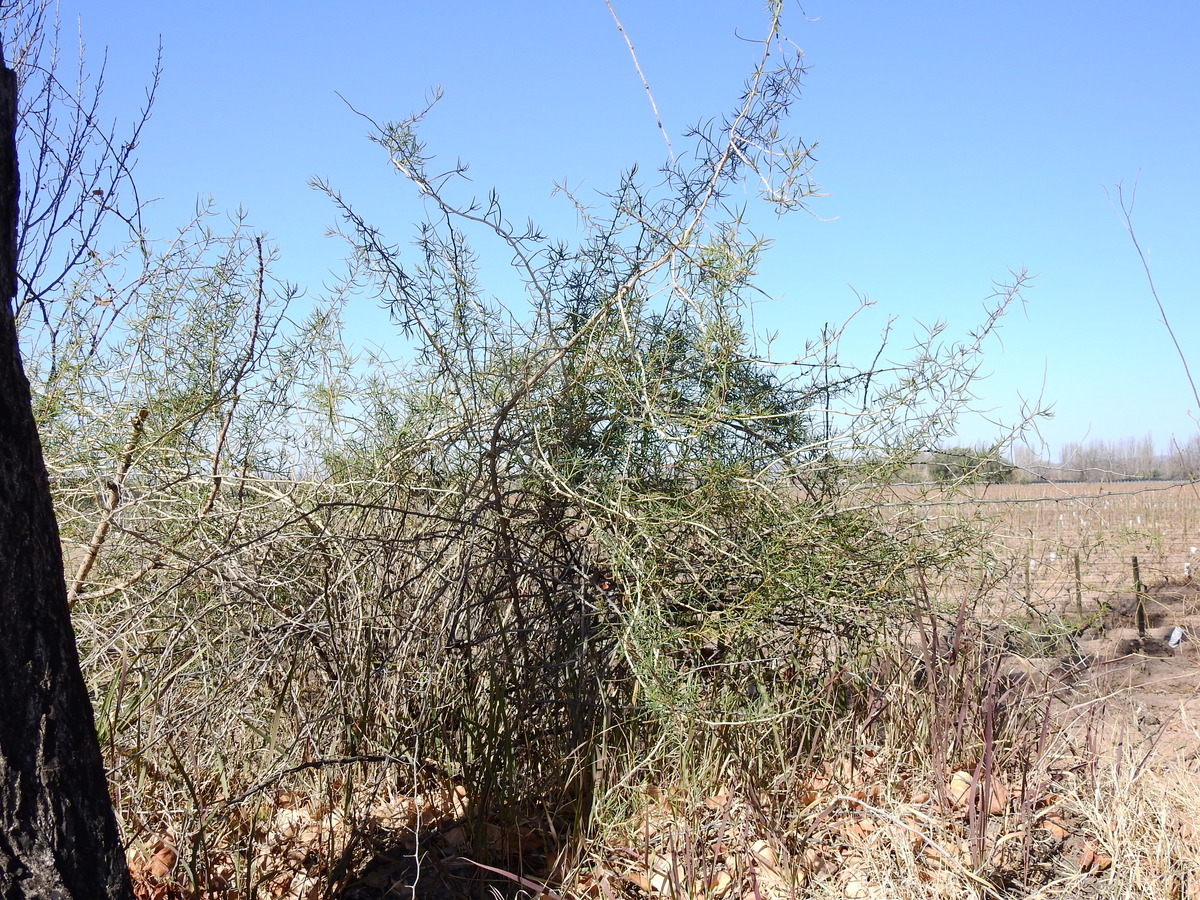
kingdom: Plantae
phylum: Tracheophyta
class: Magnoliopsida
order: Asterales
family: Asteraceae
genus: Senecio
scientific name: Senecio subulatus
